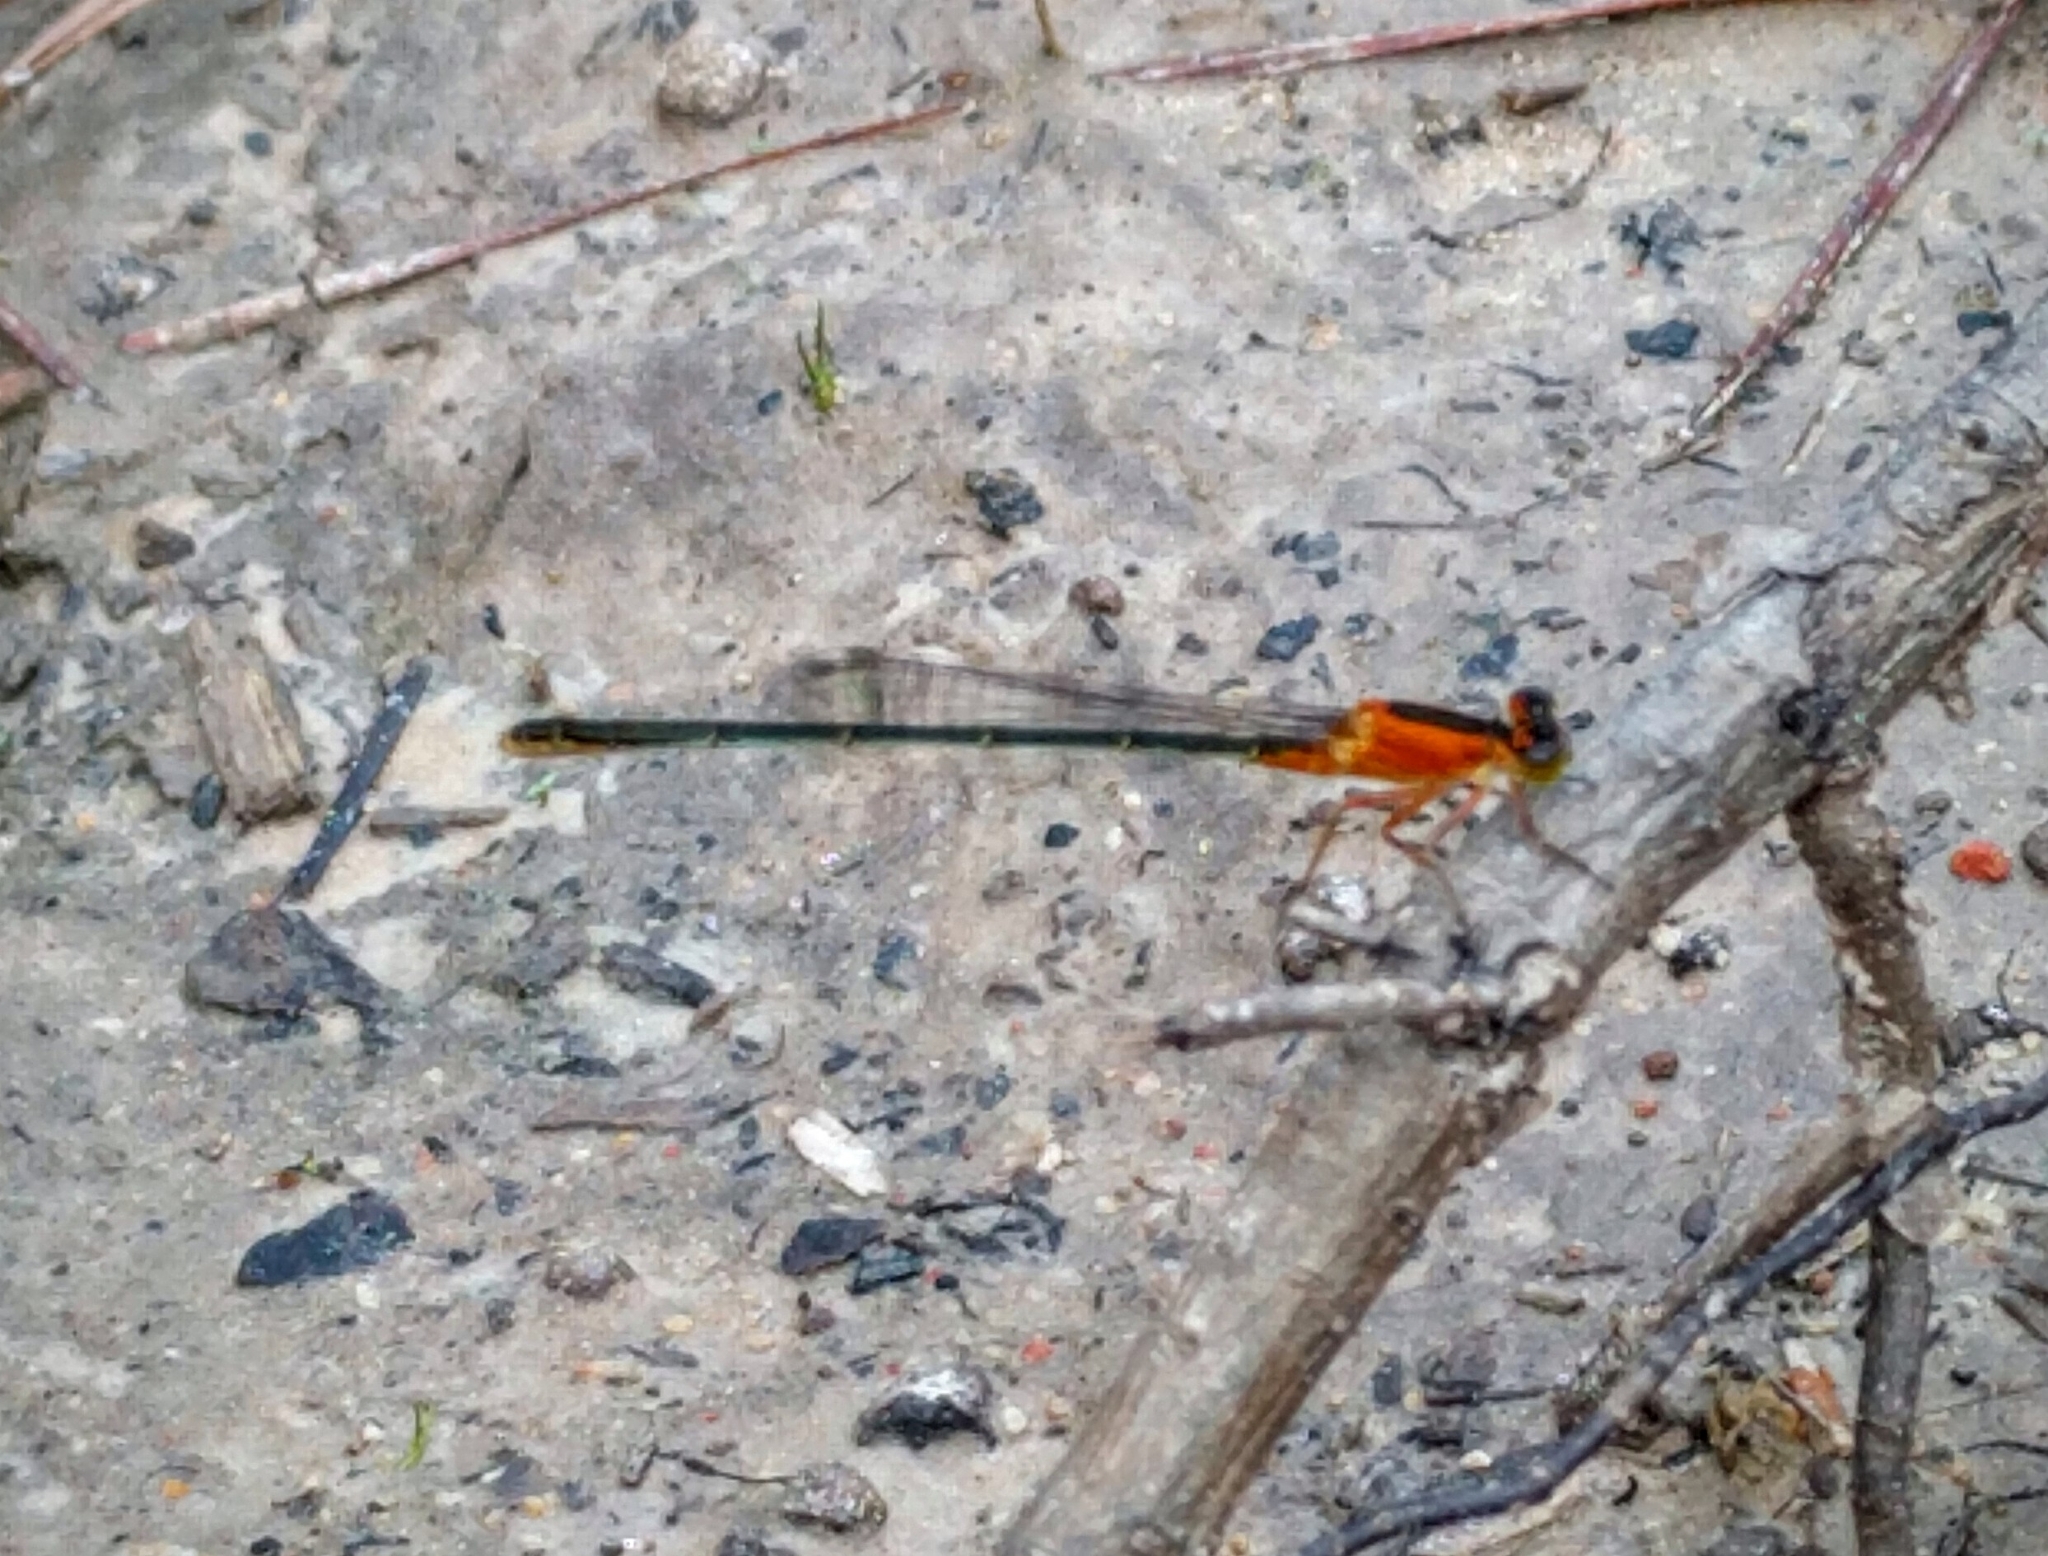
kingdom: Animalia
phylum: Arthropoda
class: Insecta
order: Odonata
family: Coenagrionidae
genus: Ischnura
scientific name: Ischnura ramburii
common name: Rambur's forktail
